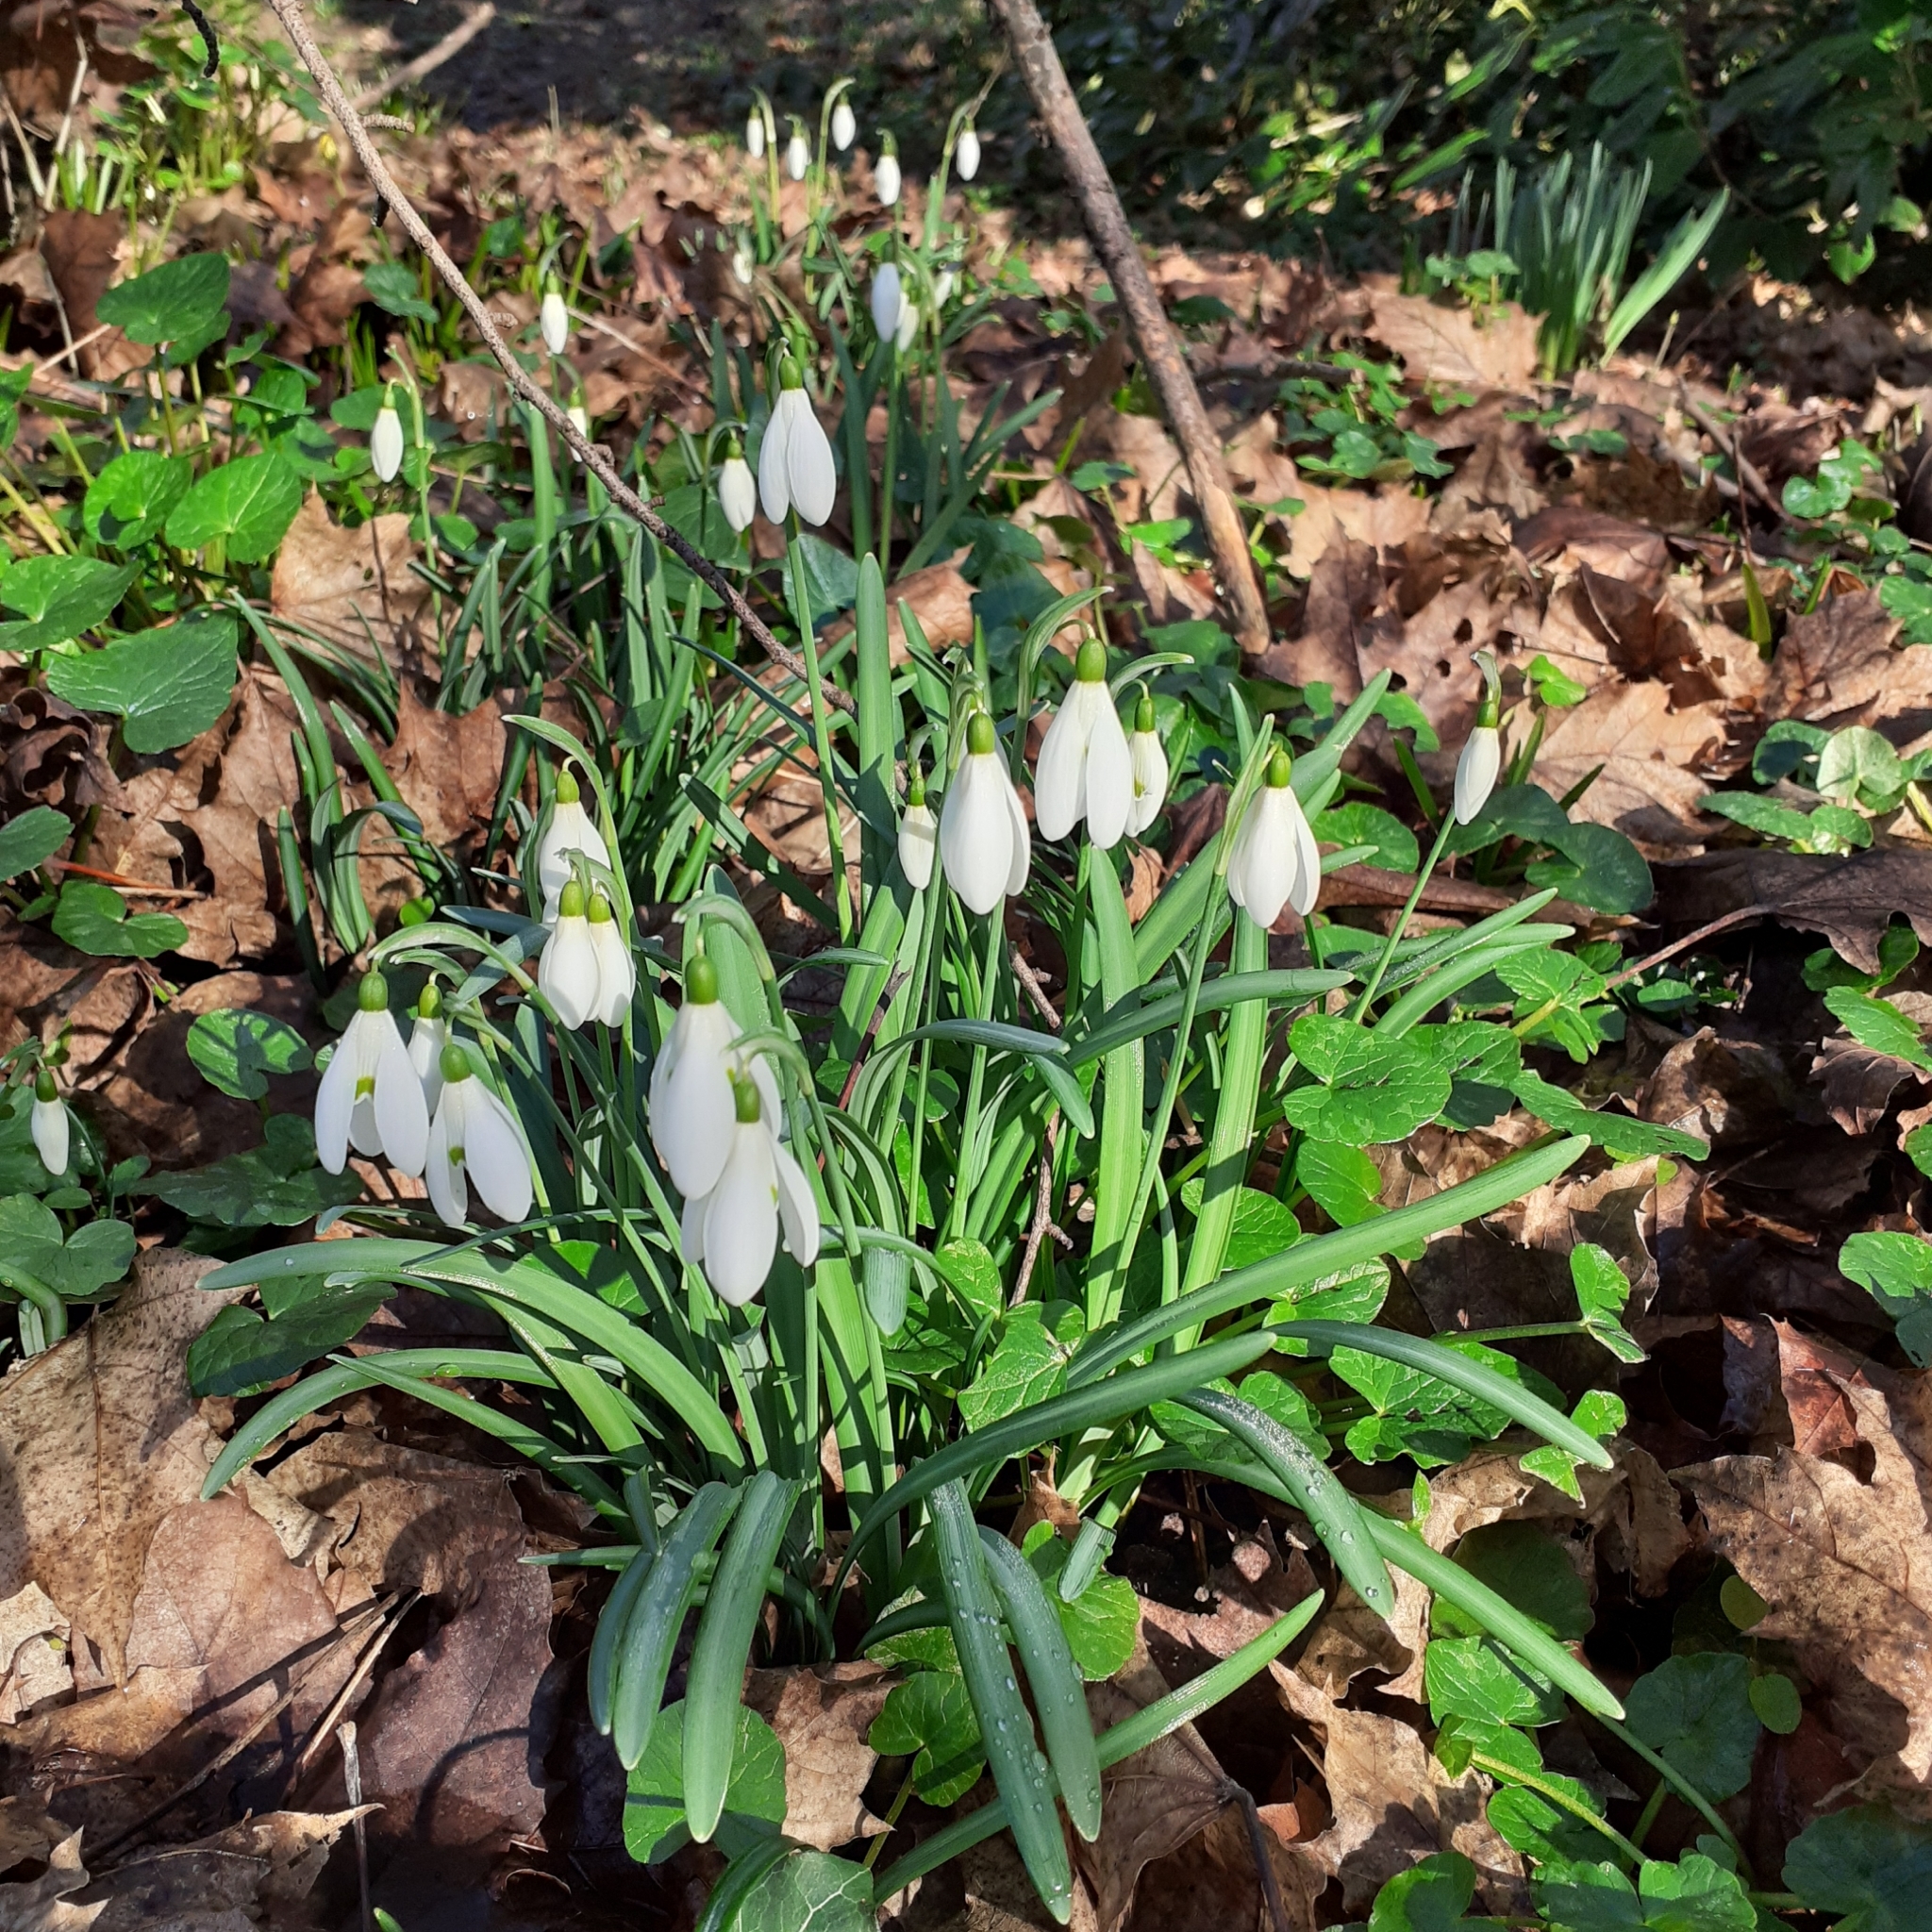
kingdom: Plantae
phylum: Tracheophyta
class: Liliopsida
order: Asparagales
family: Amaryllidaceae
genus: Galanthus
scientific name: Galanthus nivalis
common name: Snowdrop
